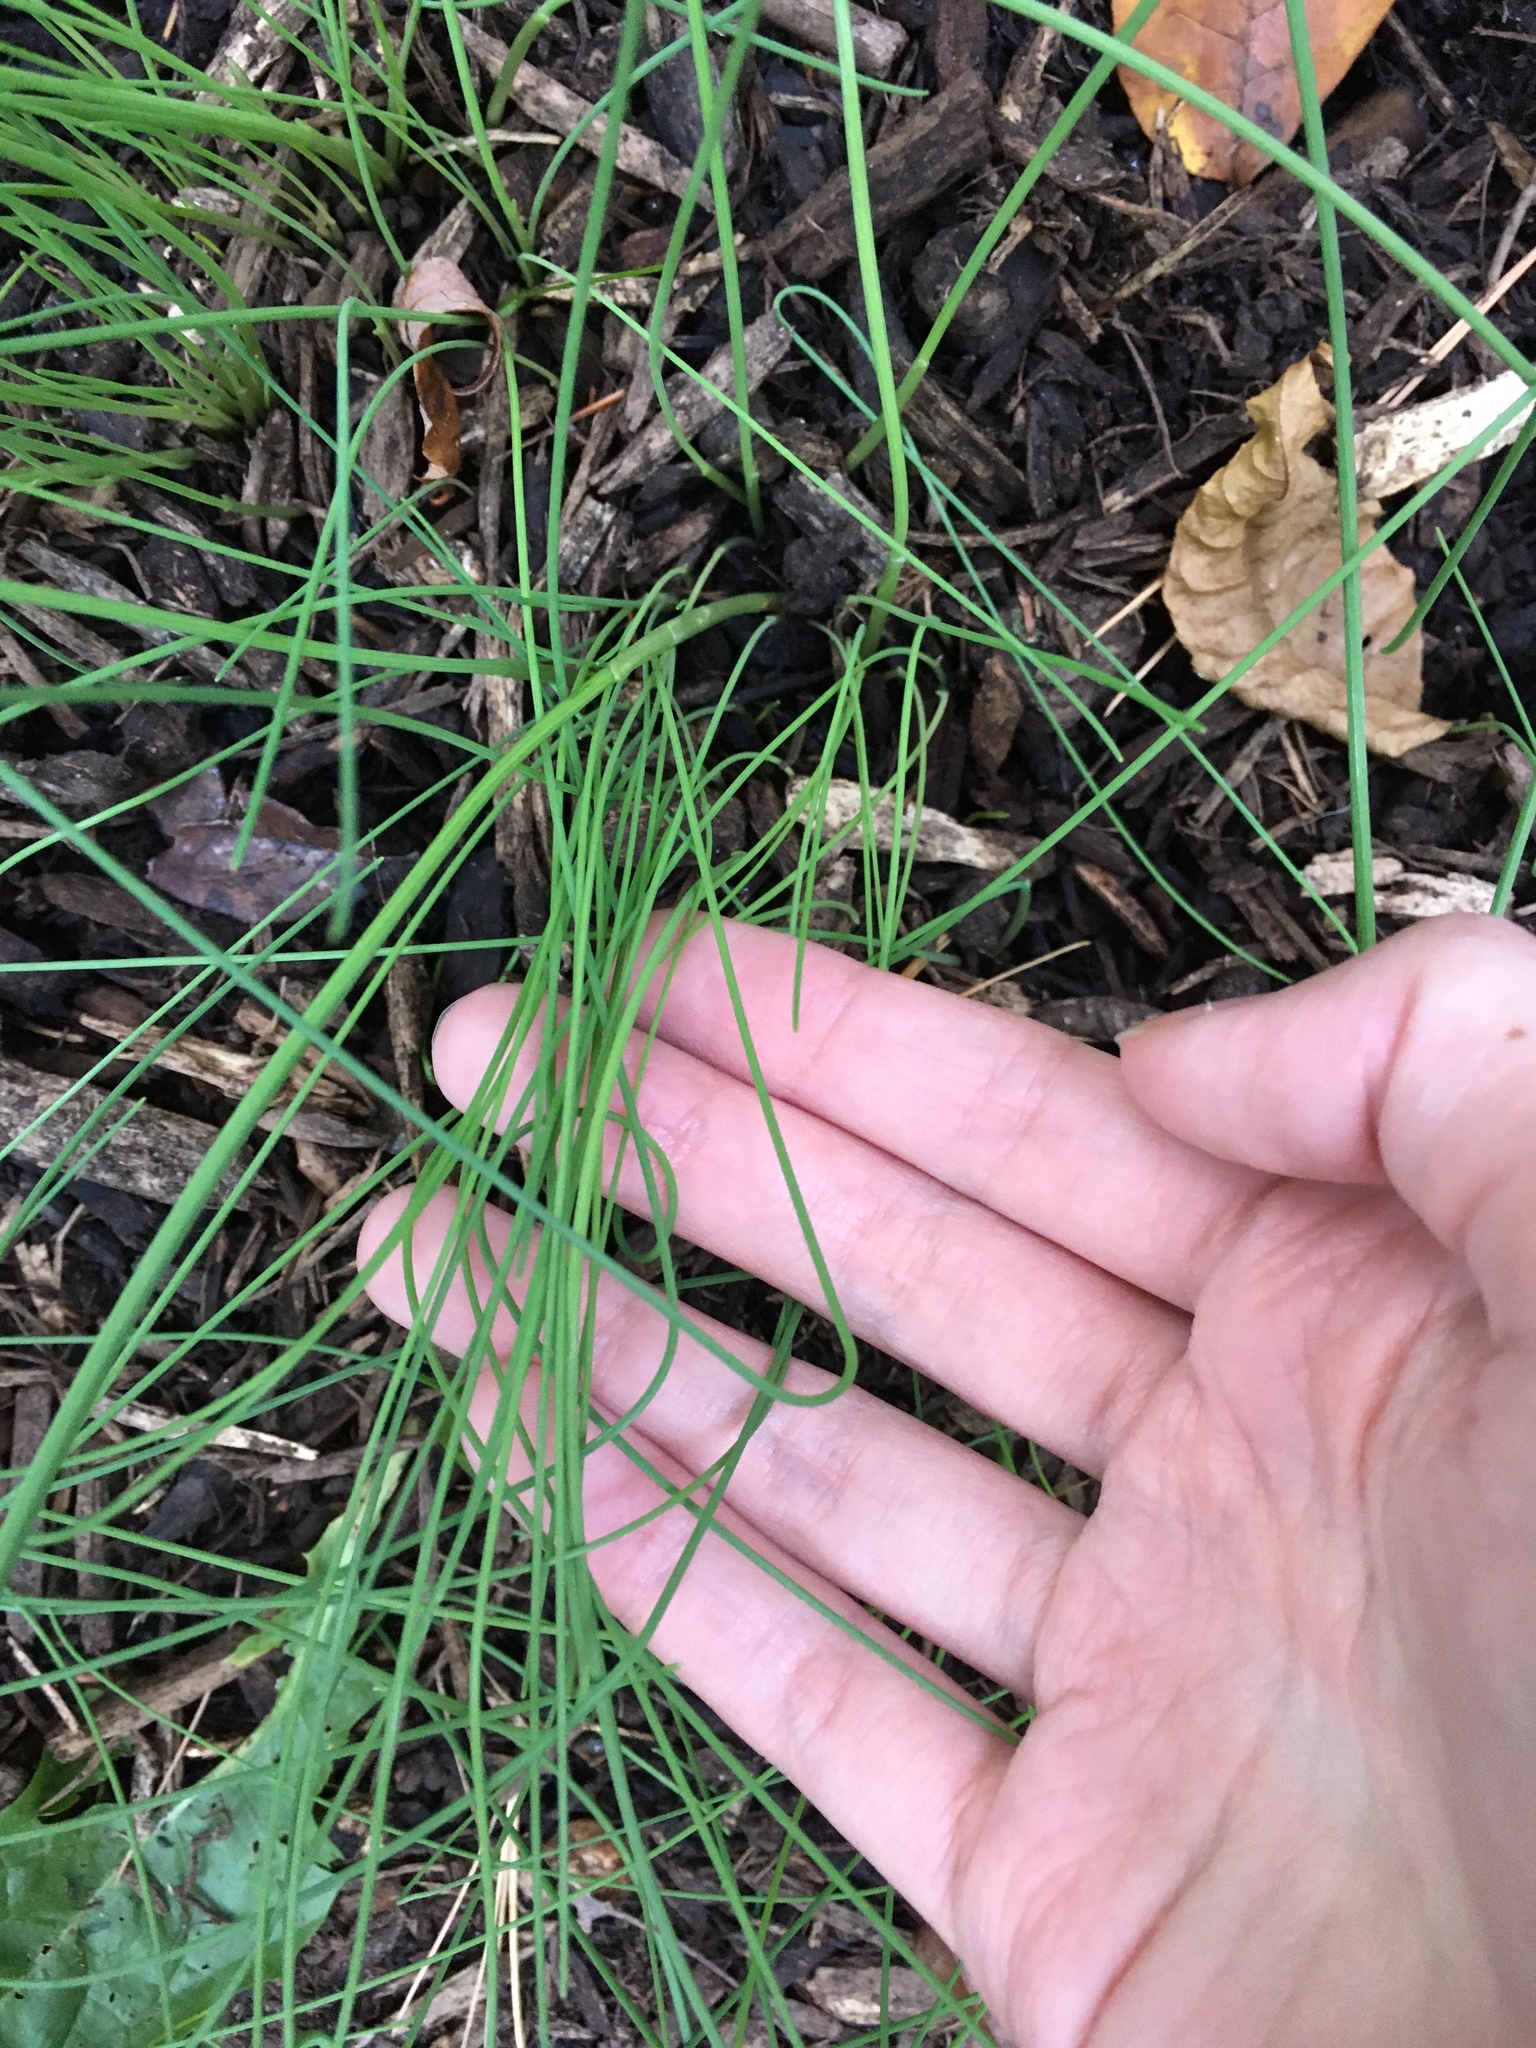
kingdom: Plantae
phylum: Tracheophyta
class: Liliopsida
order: Asparagales
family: Amaryllidaceae
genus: Allium
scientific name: Allium vineale
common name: Crow garlic
